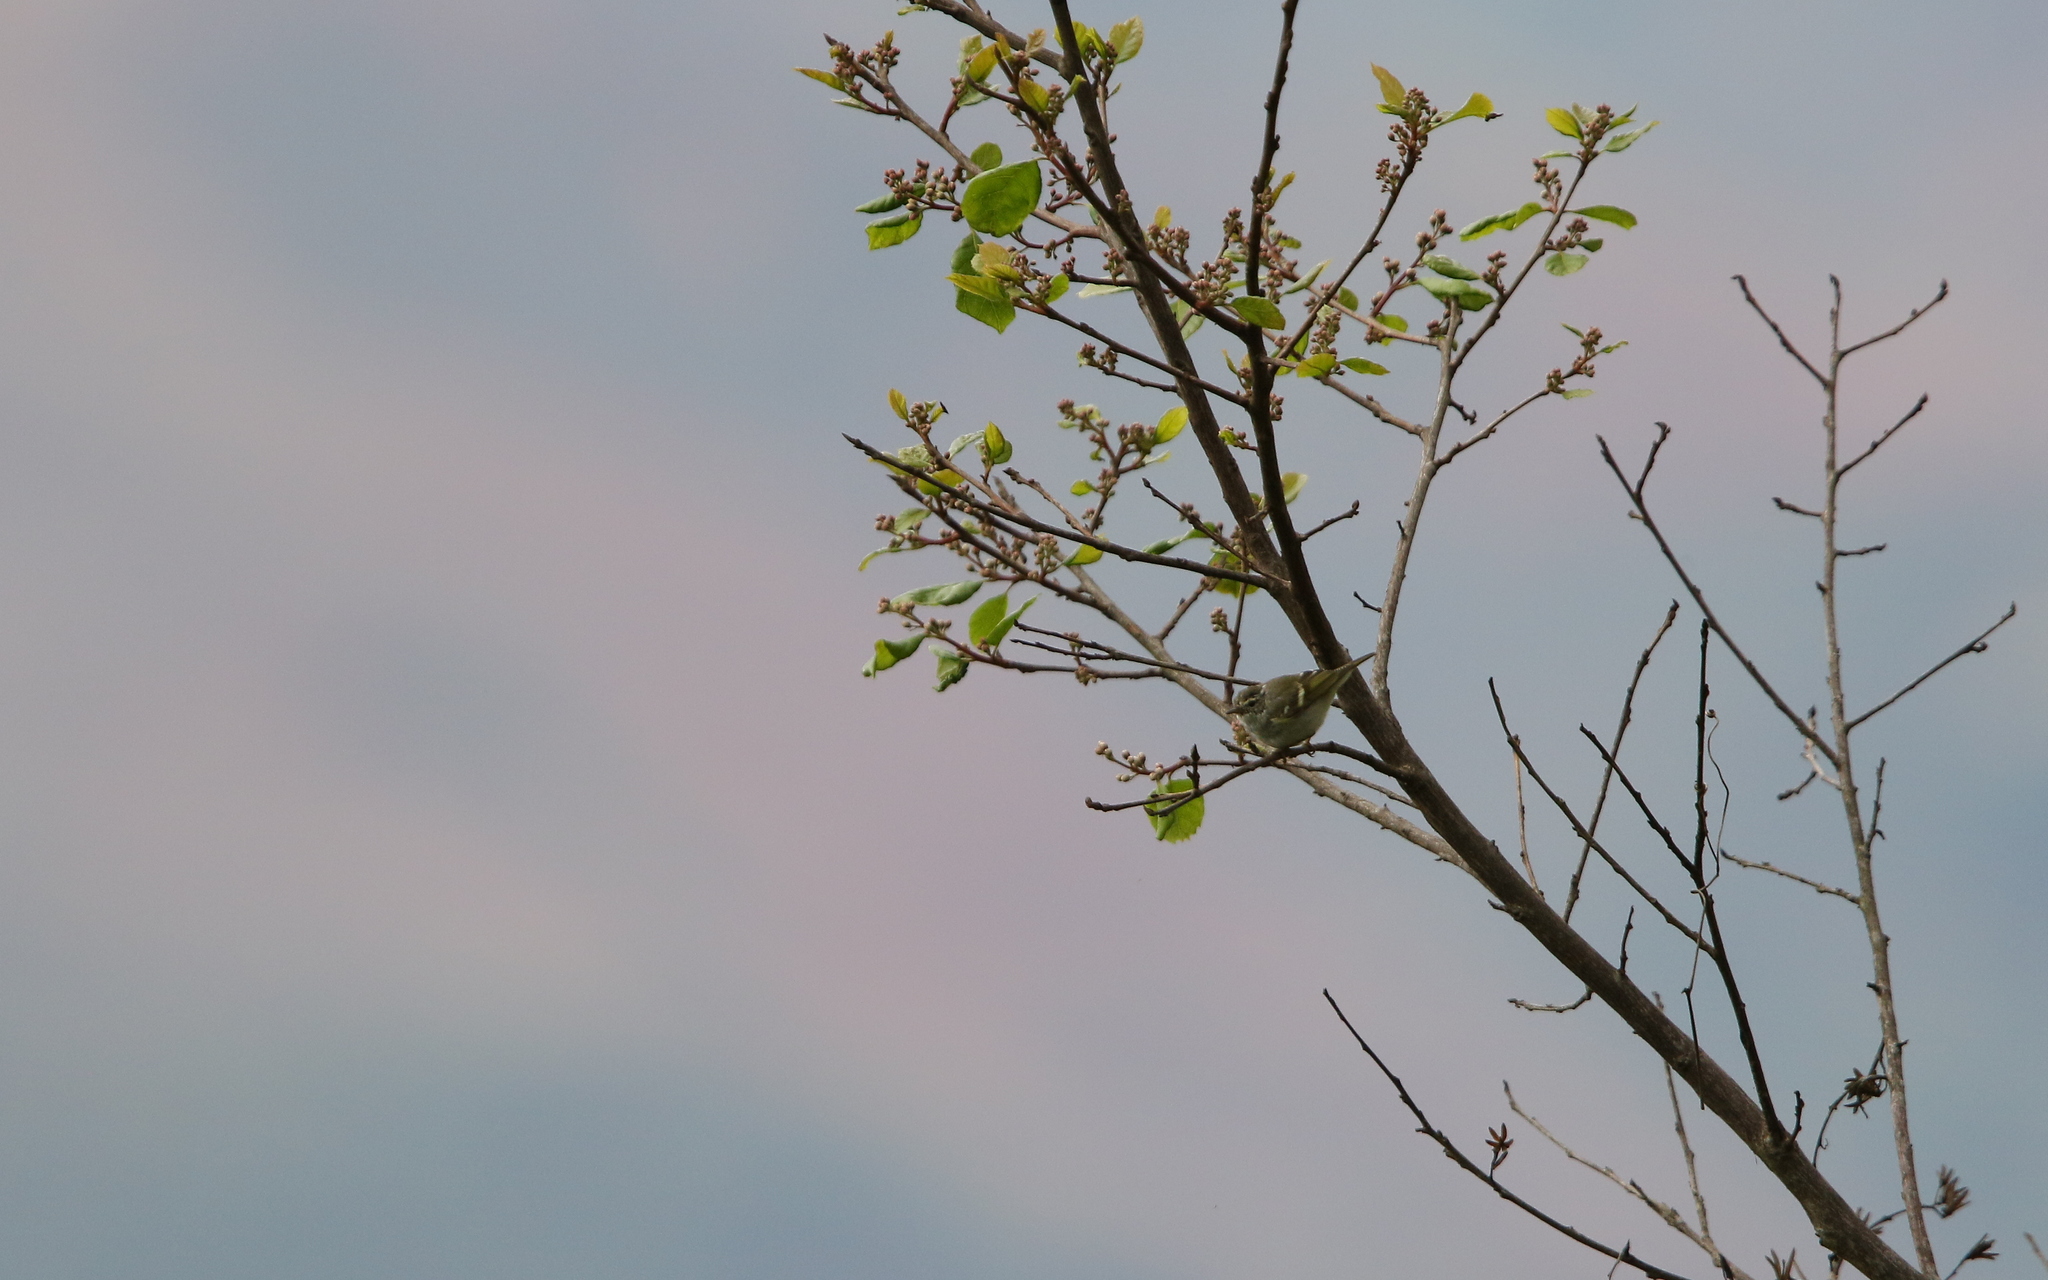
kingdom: Animalia
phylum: Chordata
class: Aves
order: Passeriformes
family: Phylloscopidae
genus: Phylloscopus
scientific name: Phylloscopus inornatus
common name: Yellow-browed warbler
